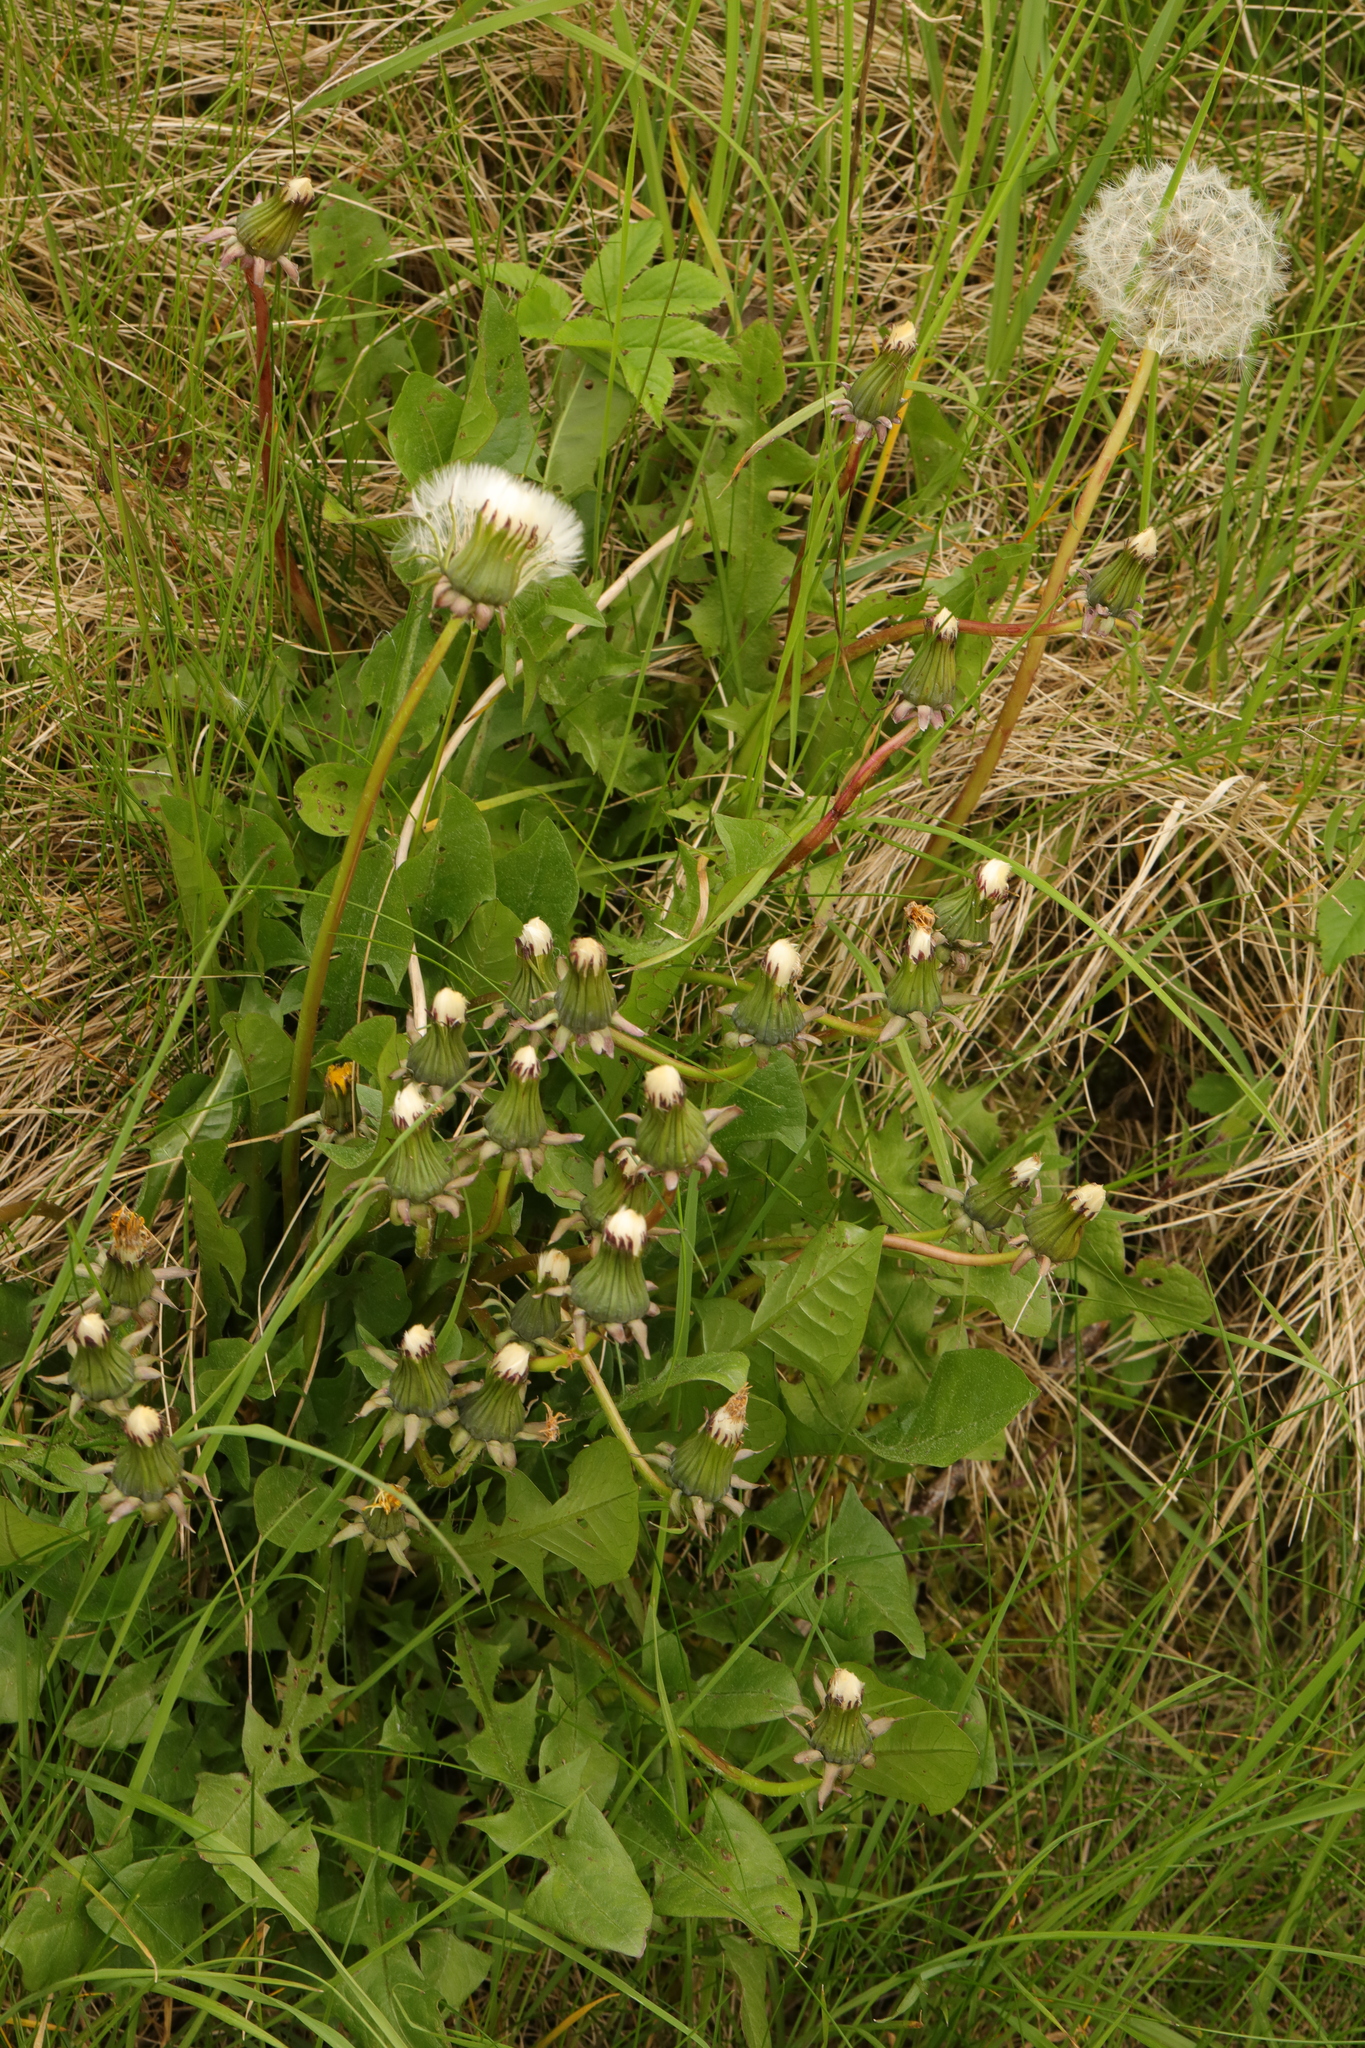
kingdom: Plantae
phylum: Tracheophyta
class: Magnoliopsida
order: Asterales
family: Asteraceae
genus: Taraxacum
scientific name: Taraxacum officinale
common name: Common dandelion
